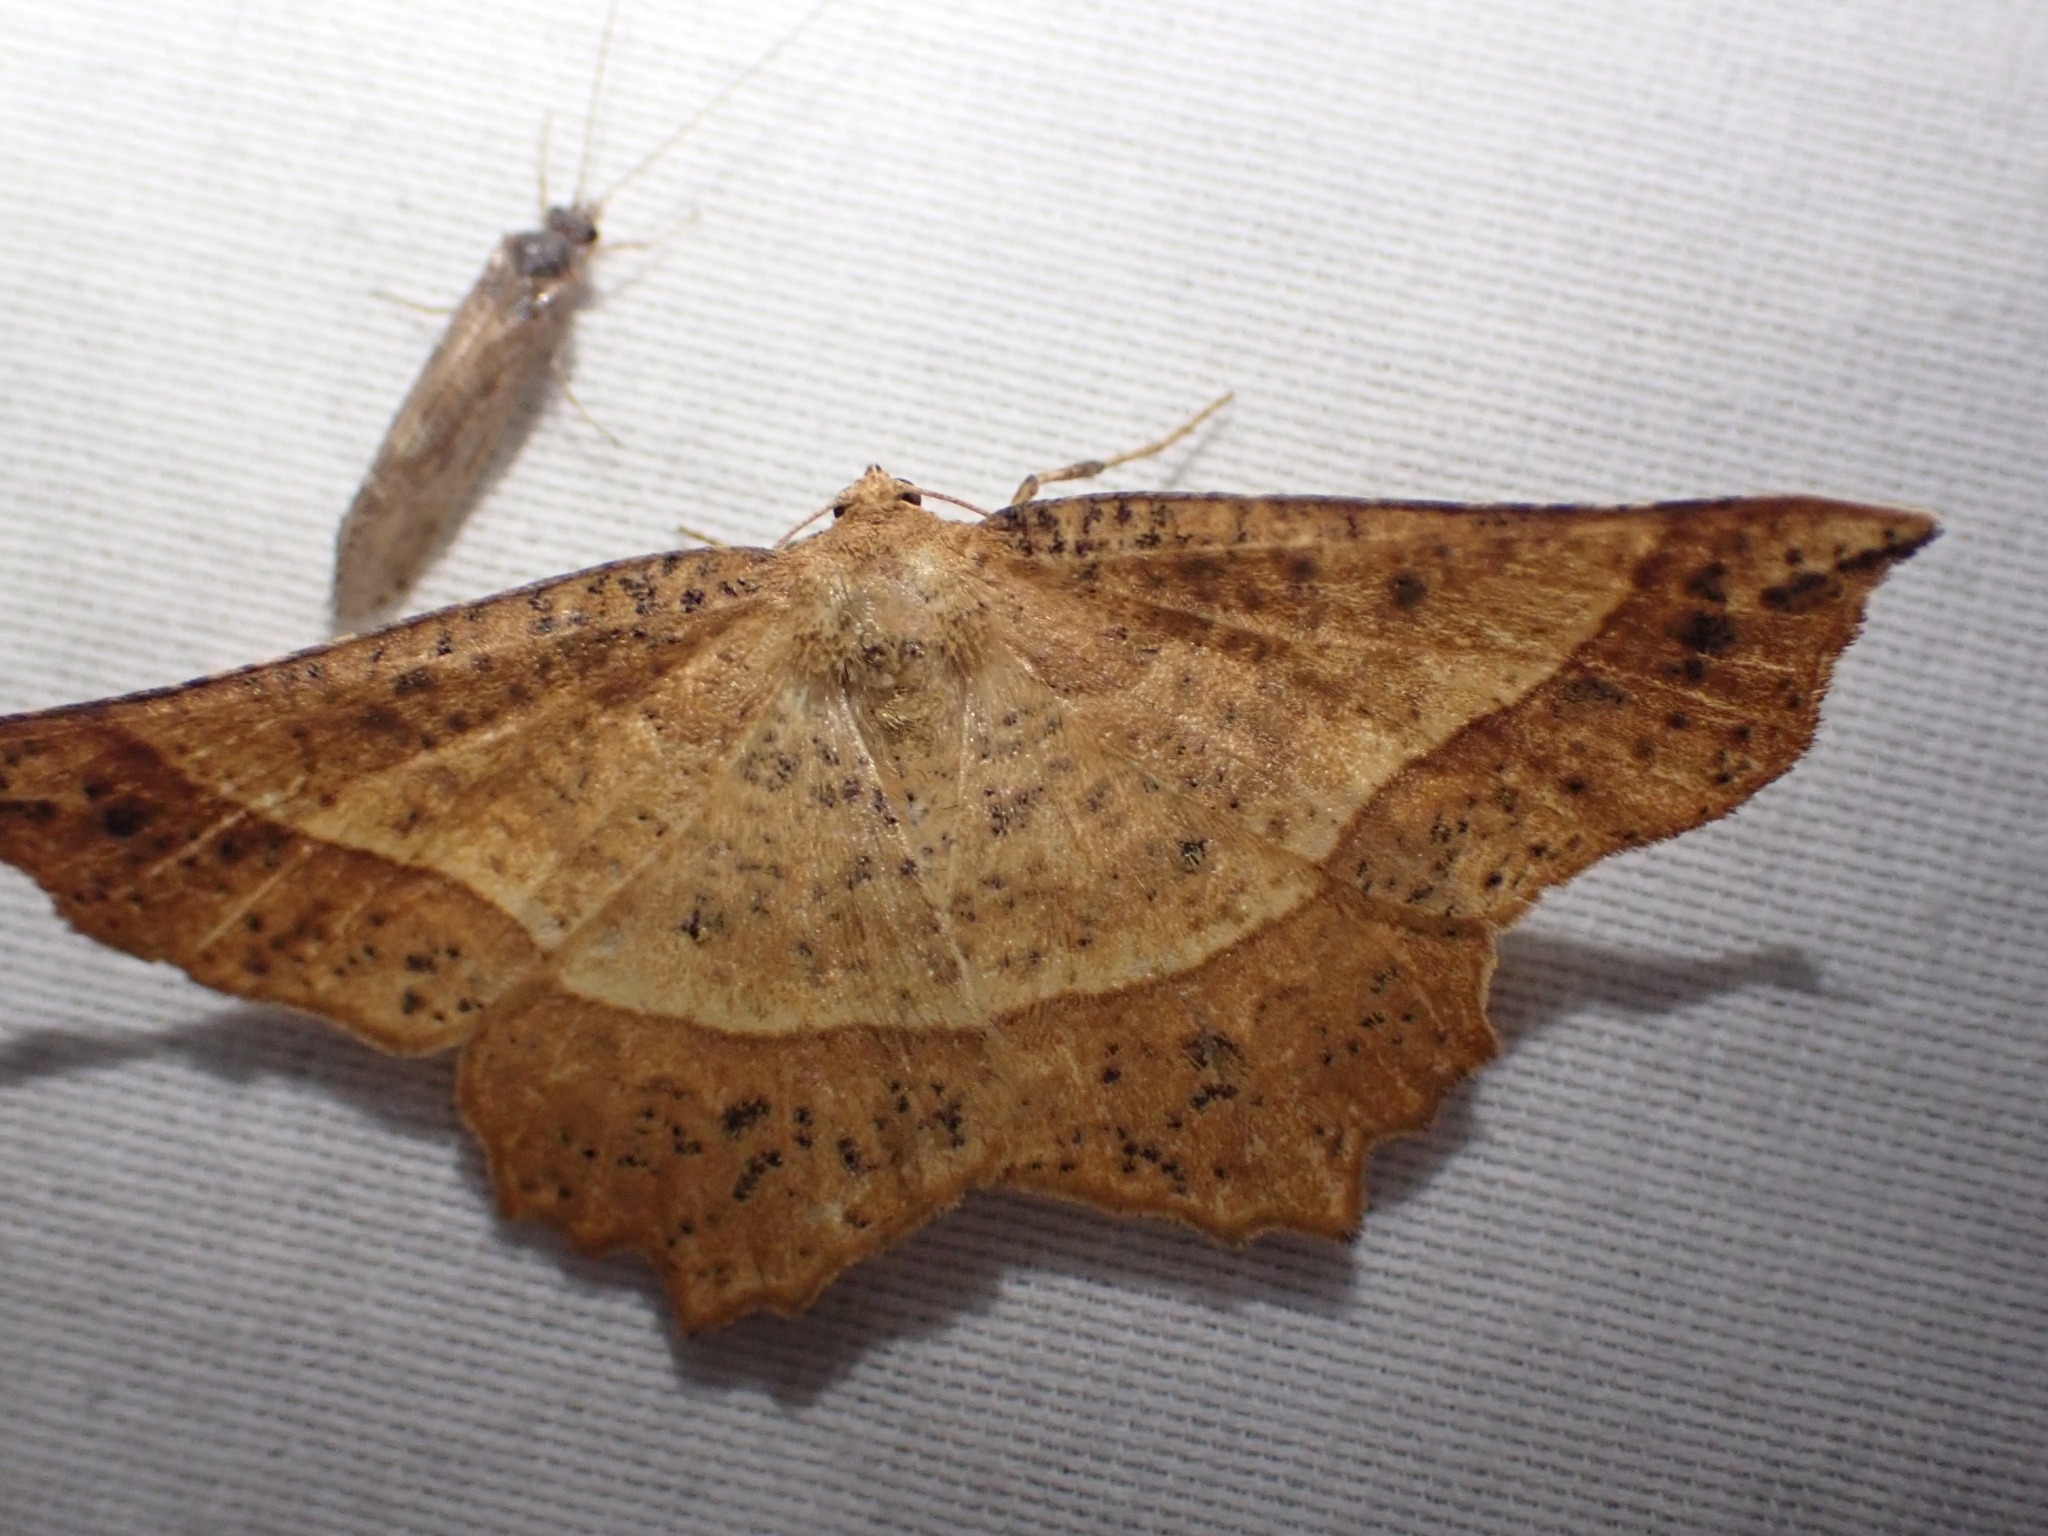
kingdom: Animalia
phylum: Arthropoda
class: Insecta
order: Lepidoptera
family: Geometridae
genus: Euchlaena
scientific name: Euchlaena tigrinaria
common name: Mottled euchlaena moth
